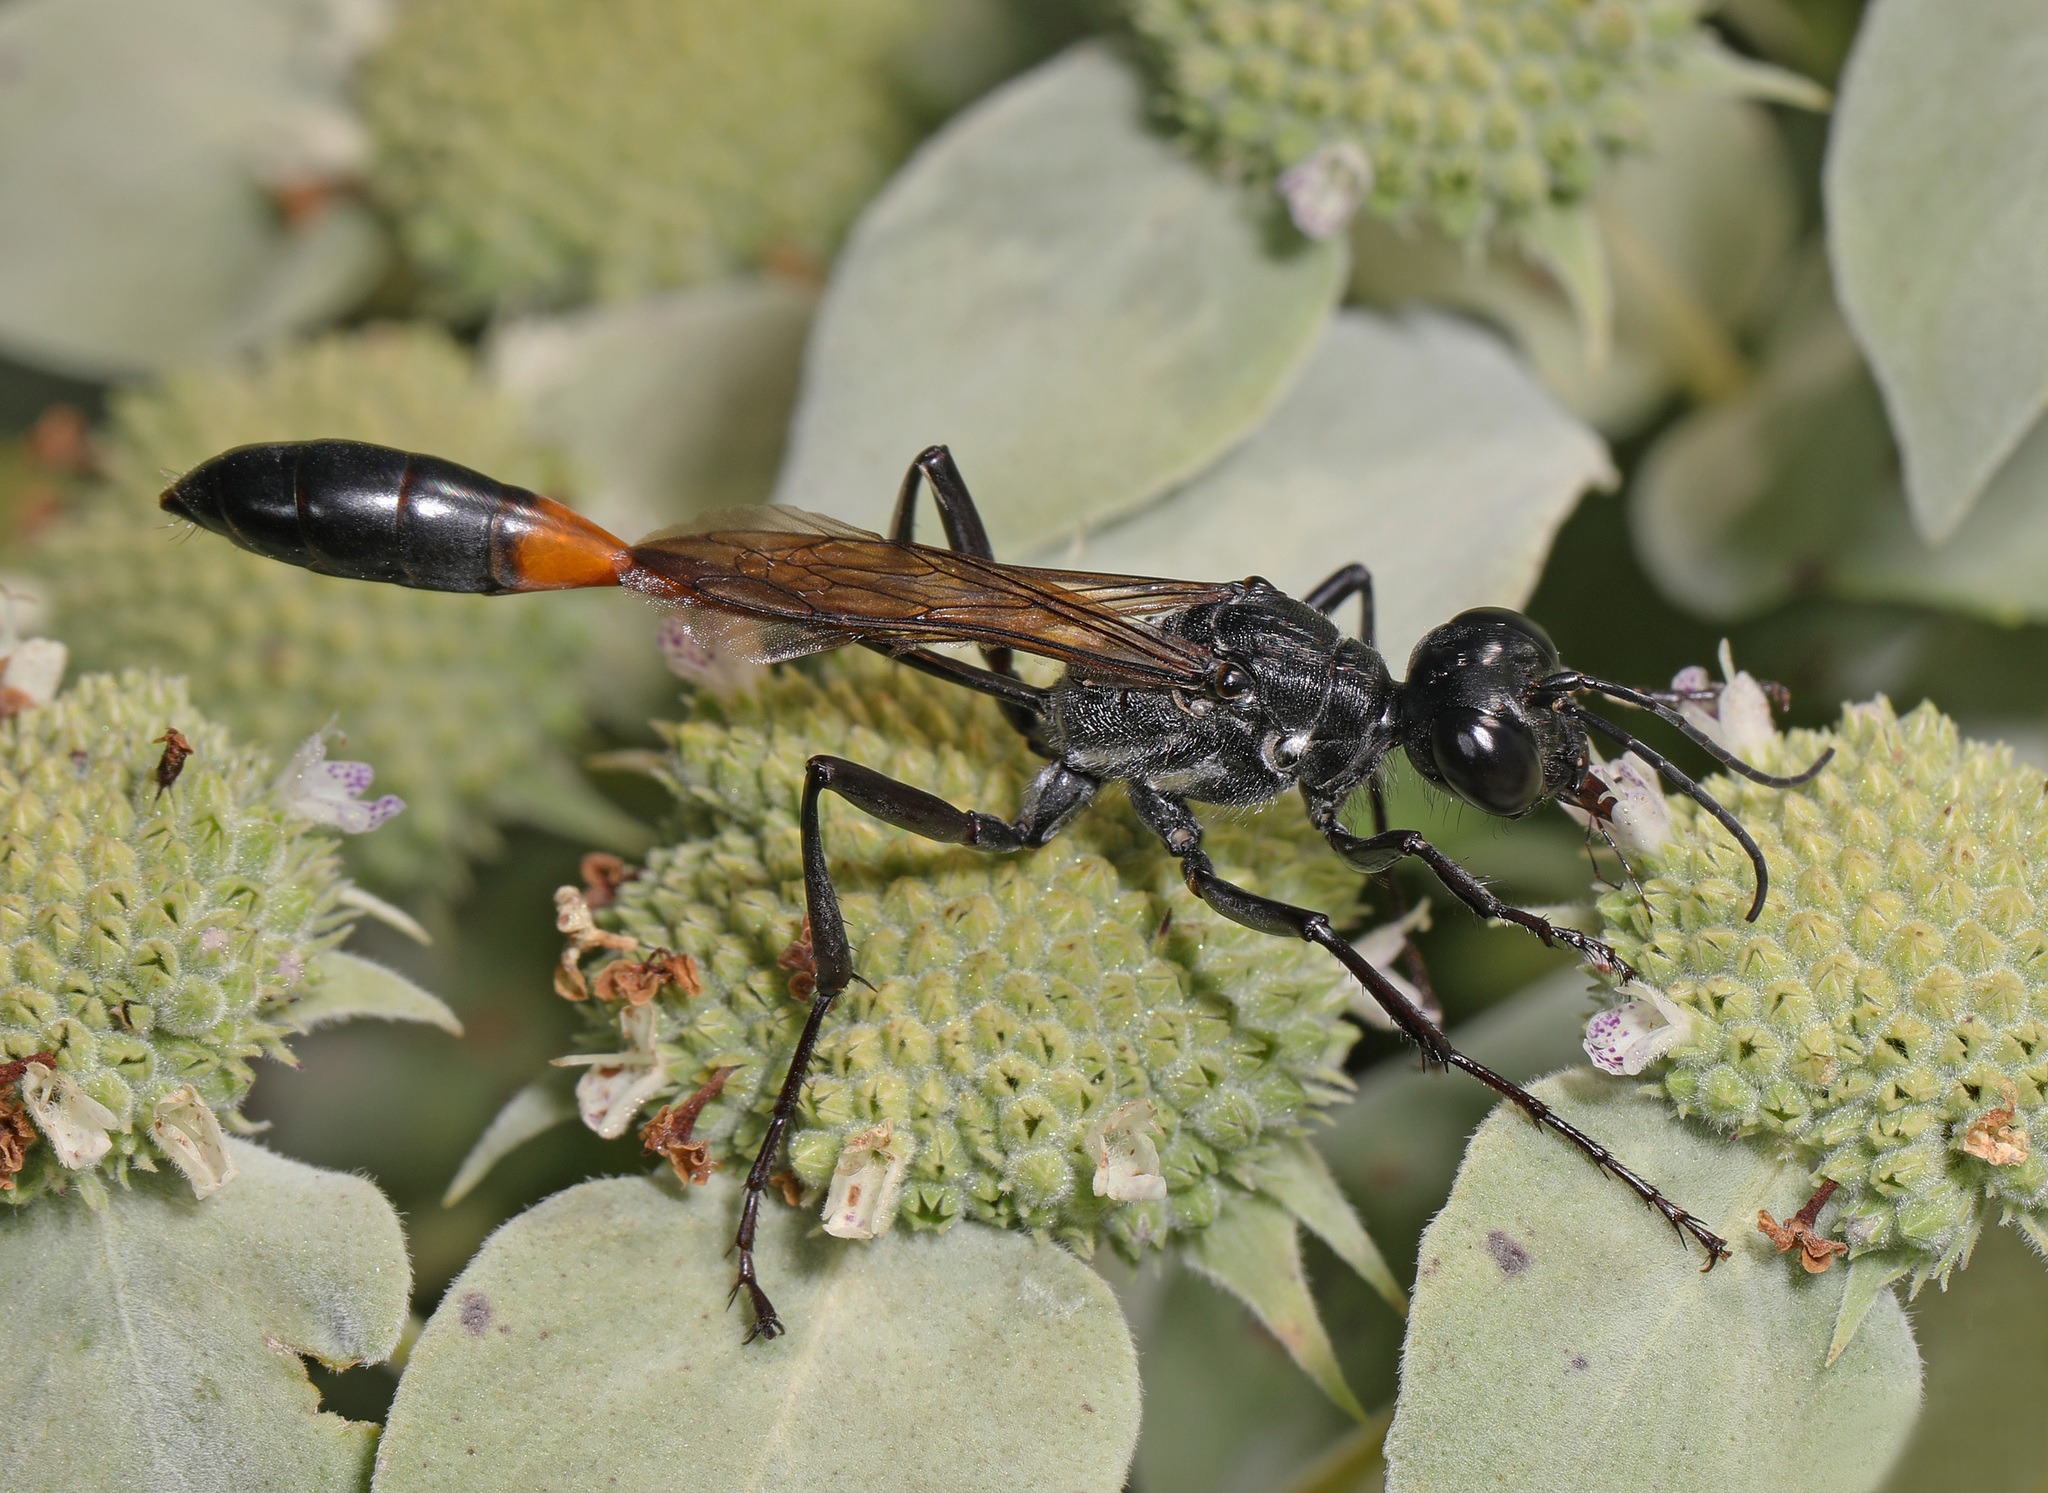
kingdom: Animalia
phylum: Arthropoda
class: Insecta
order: Hymenoptera
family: Sphecidae
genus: Ammophila
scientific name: Ammophila procera
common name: Common thread-waisted wasp
